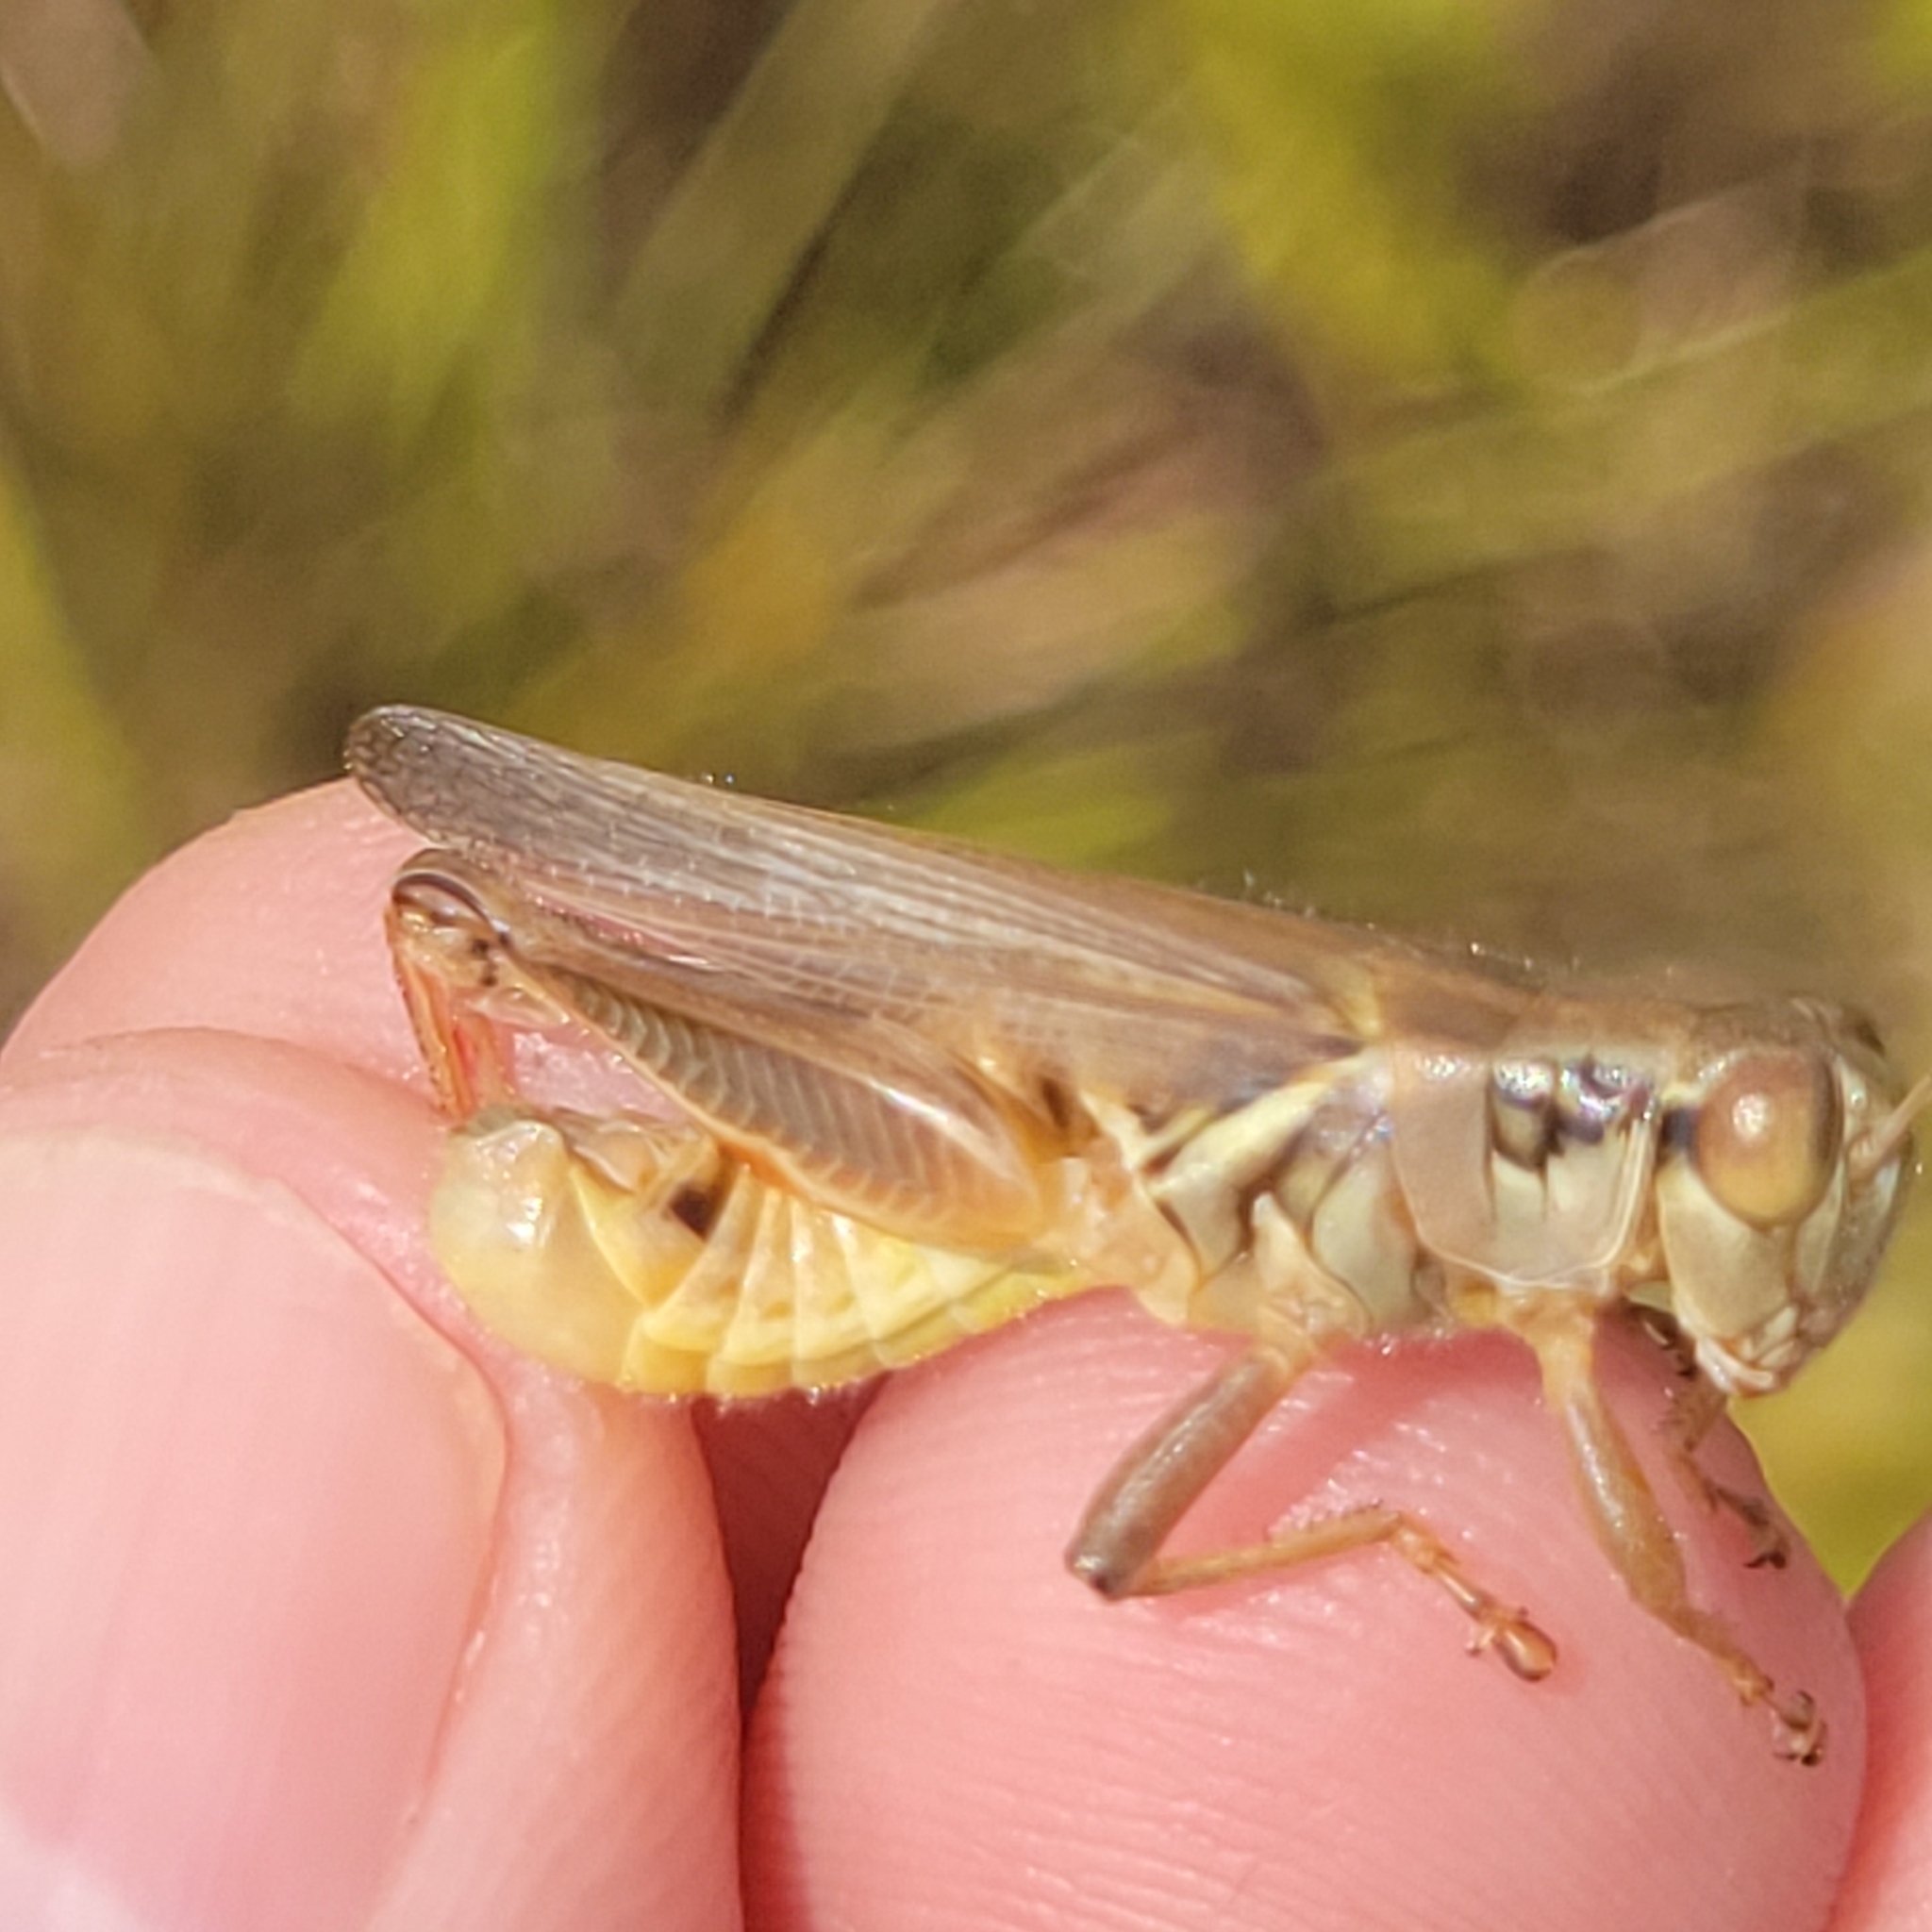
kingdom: Animalia
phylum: Arthropoda
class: Insecta
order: Orthoptera
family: Acrididae
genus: Melanoplus
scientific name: Melanoplus femurrubrum
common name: Red-legged grasshopper
